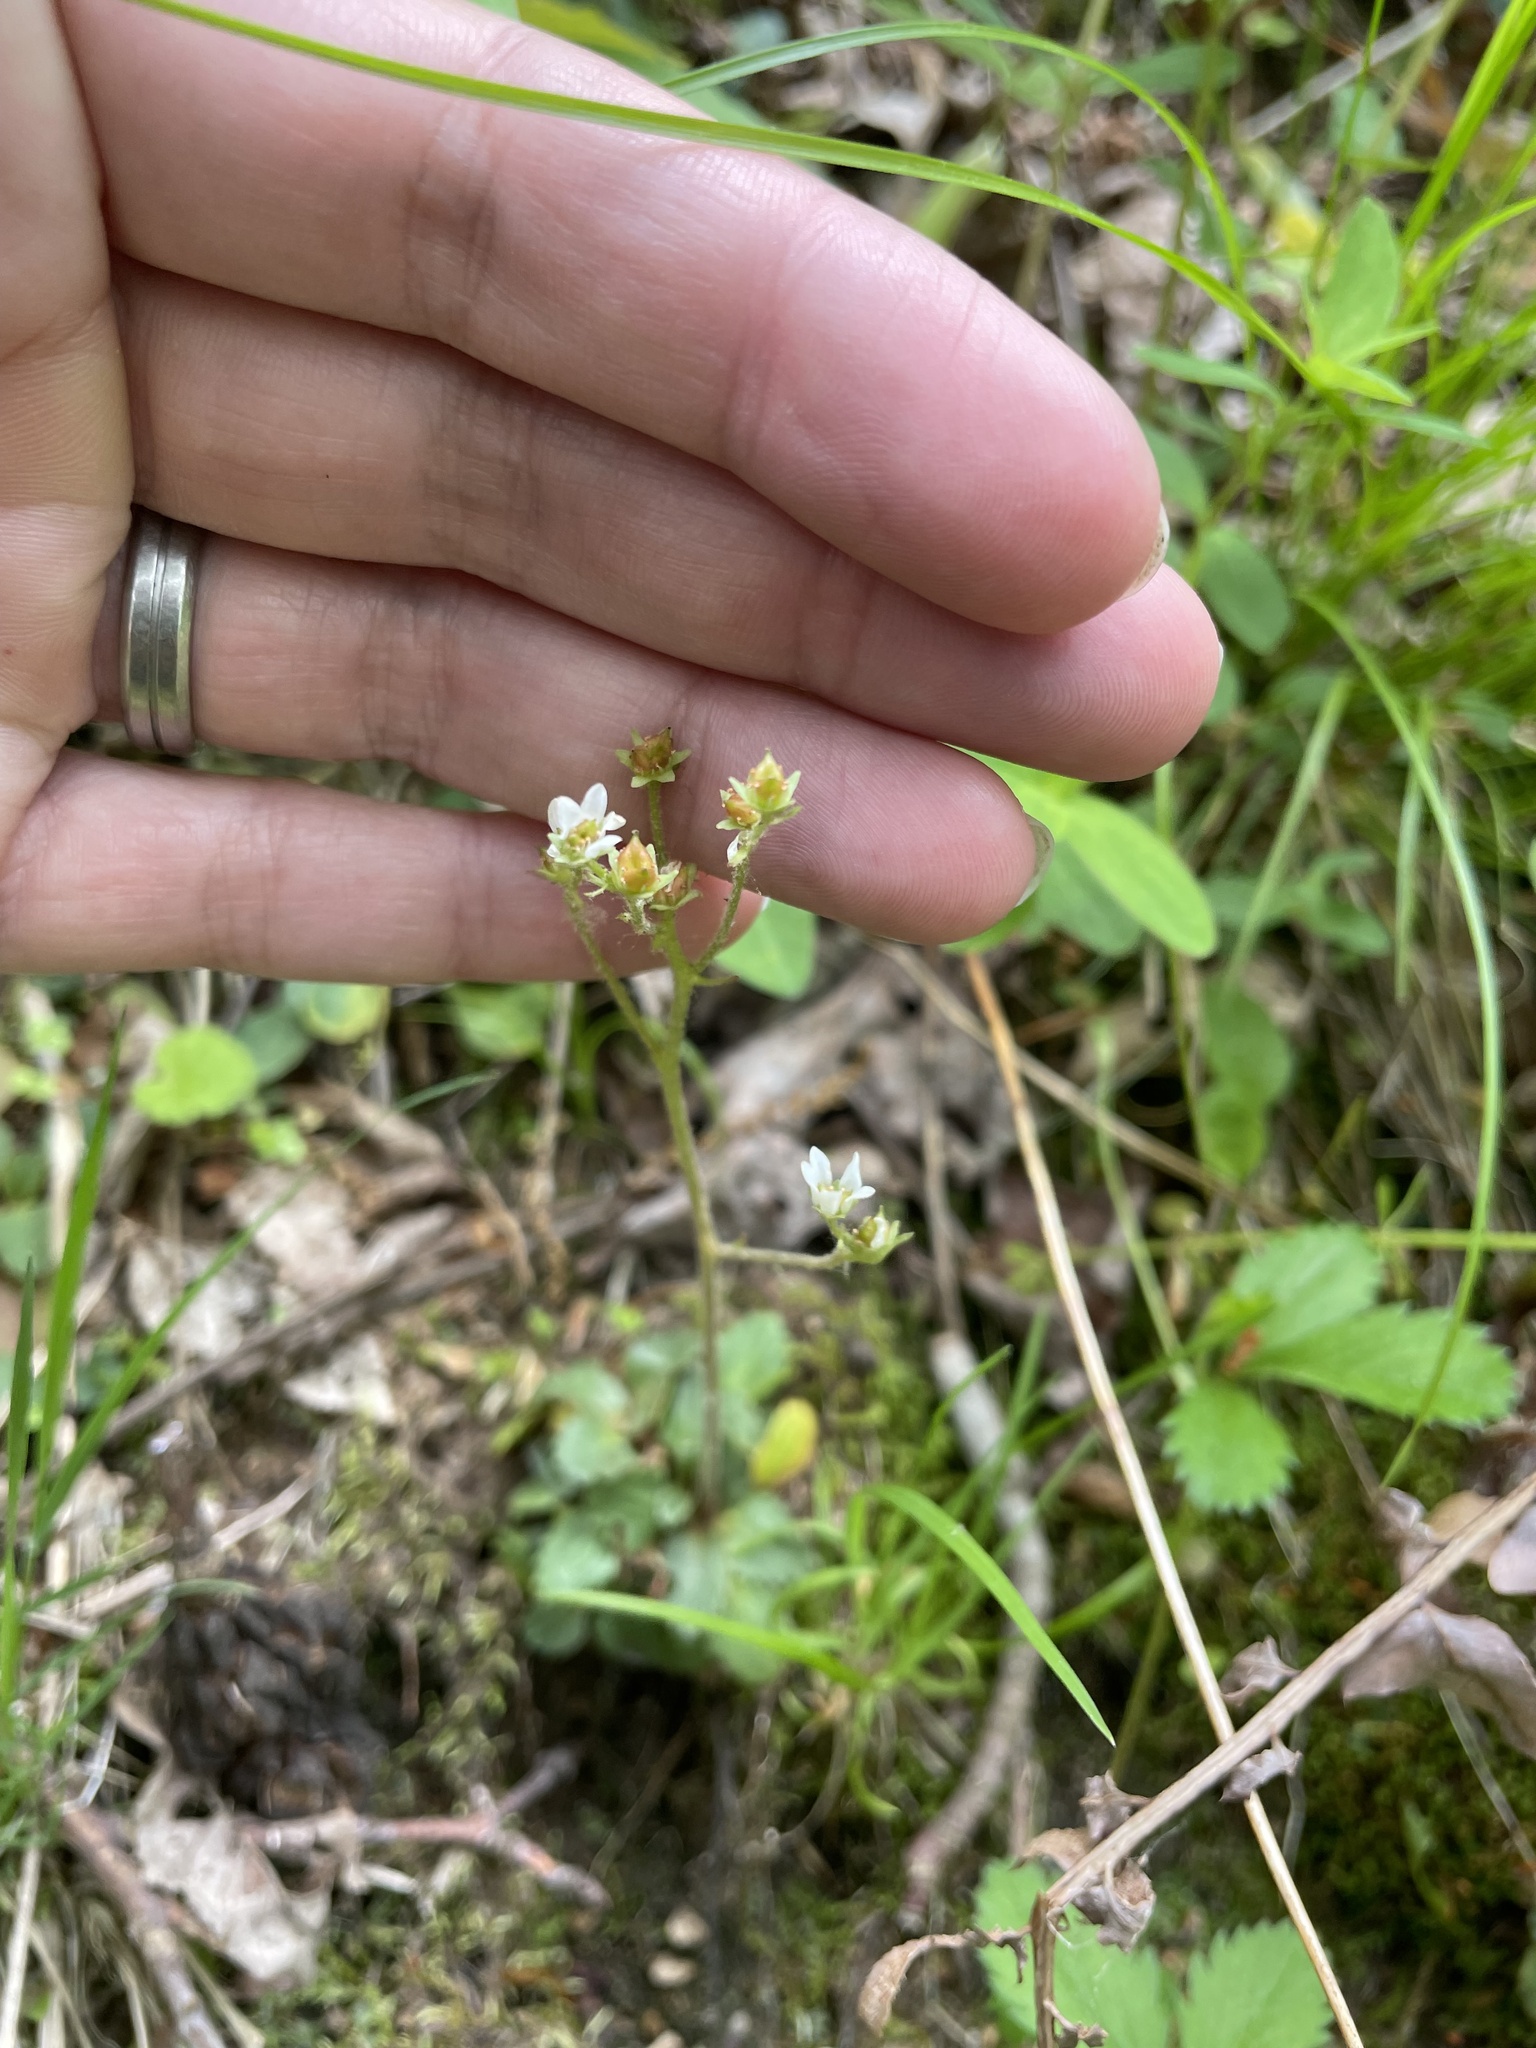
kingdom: Plantae
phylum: Tracheophyta
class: Magnoliopsida
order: Saxifragales
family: Saxifragaceae
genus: Micranthes
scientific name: Micranthes virginiensis
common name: Early saxifrage
